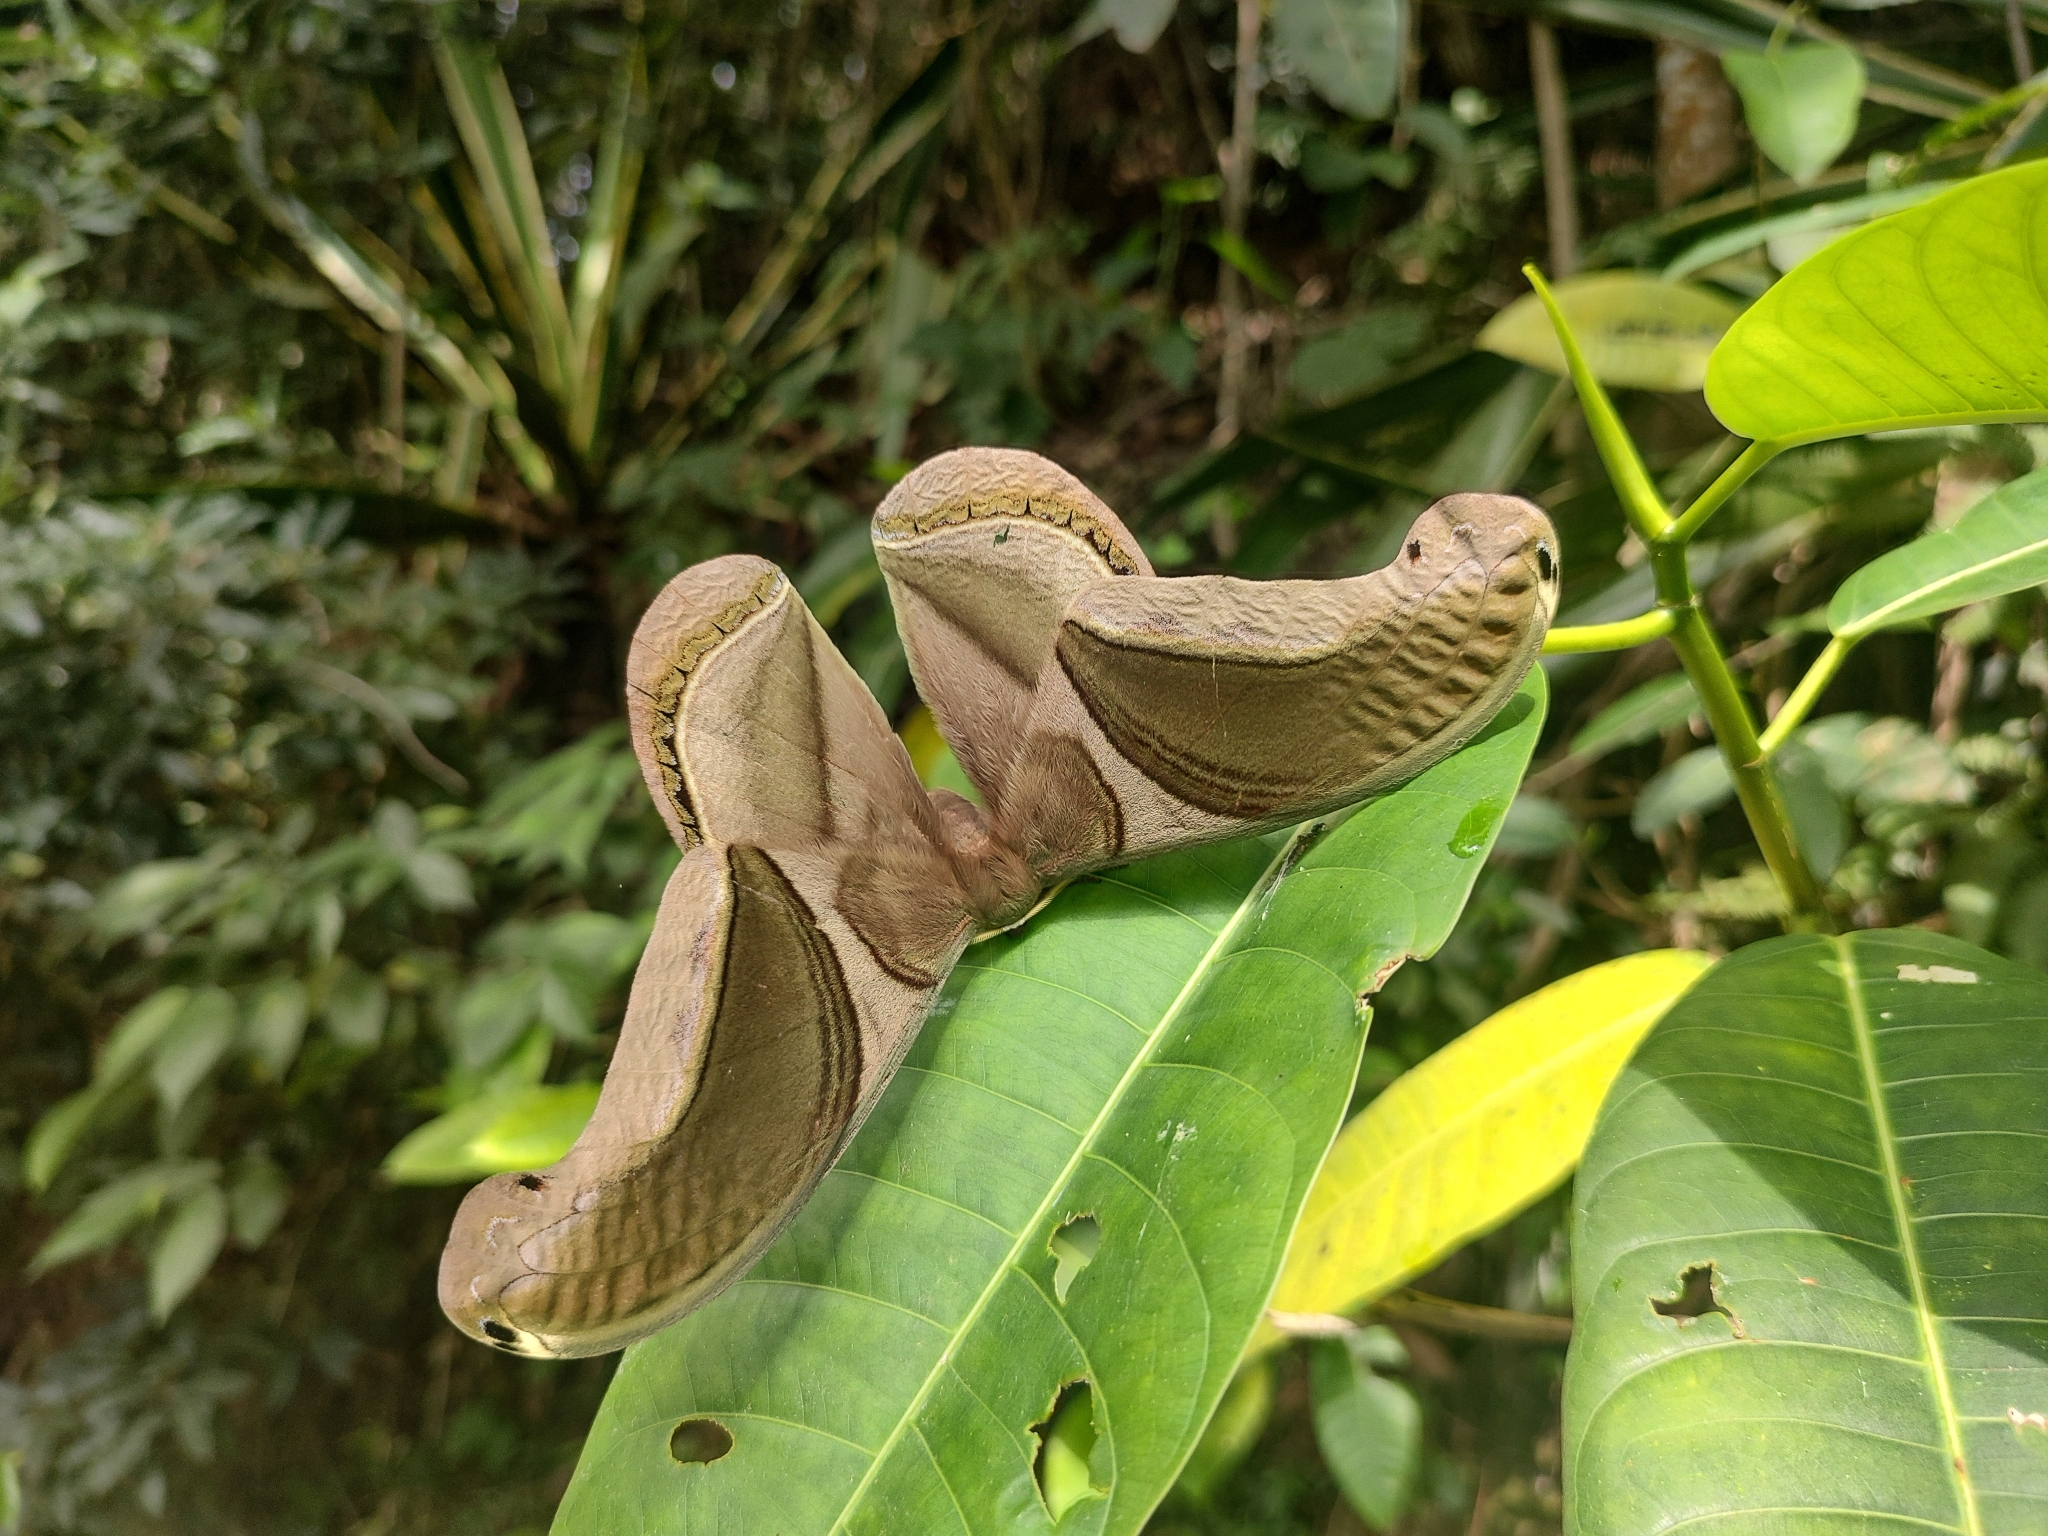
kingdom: Animalia
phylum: Arthropoda
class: Insecta
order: Lepidoptera
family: Saturniidae
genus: Rhescyntis
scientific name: Rhescyntis pseudomartii
